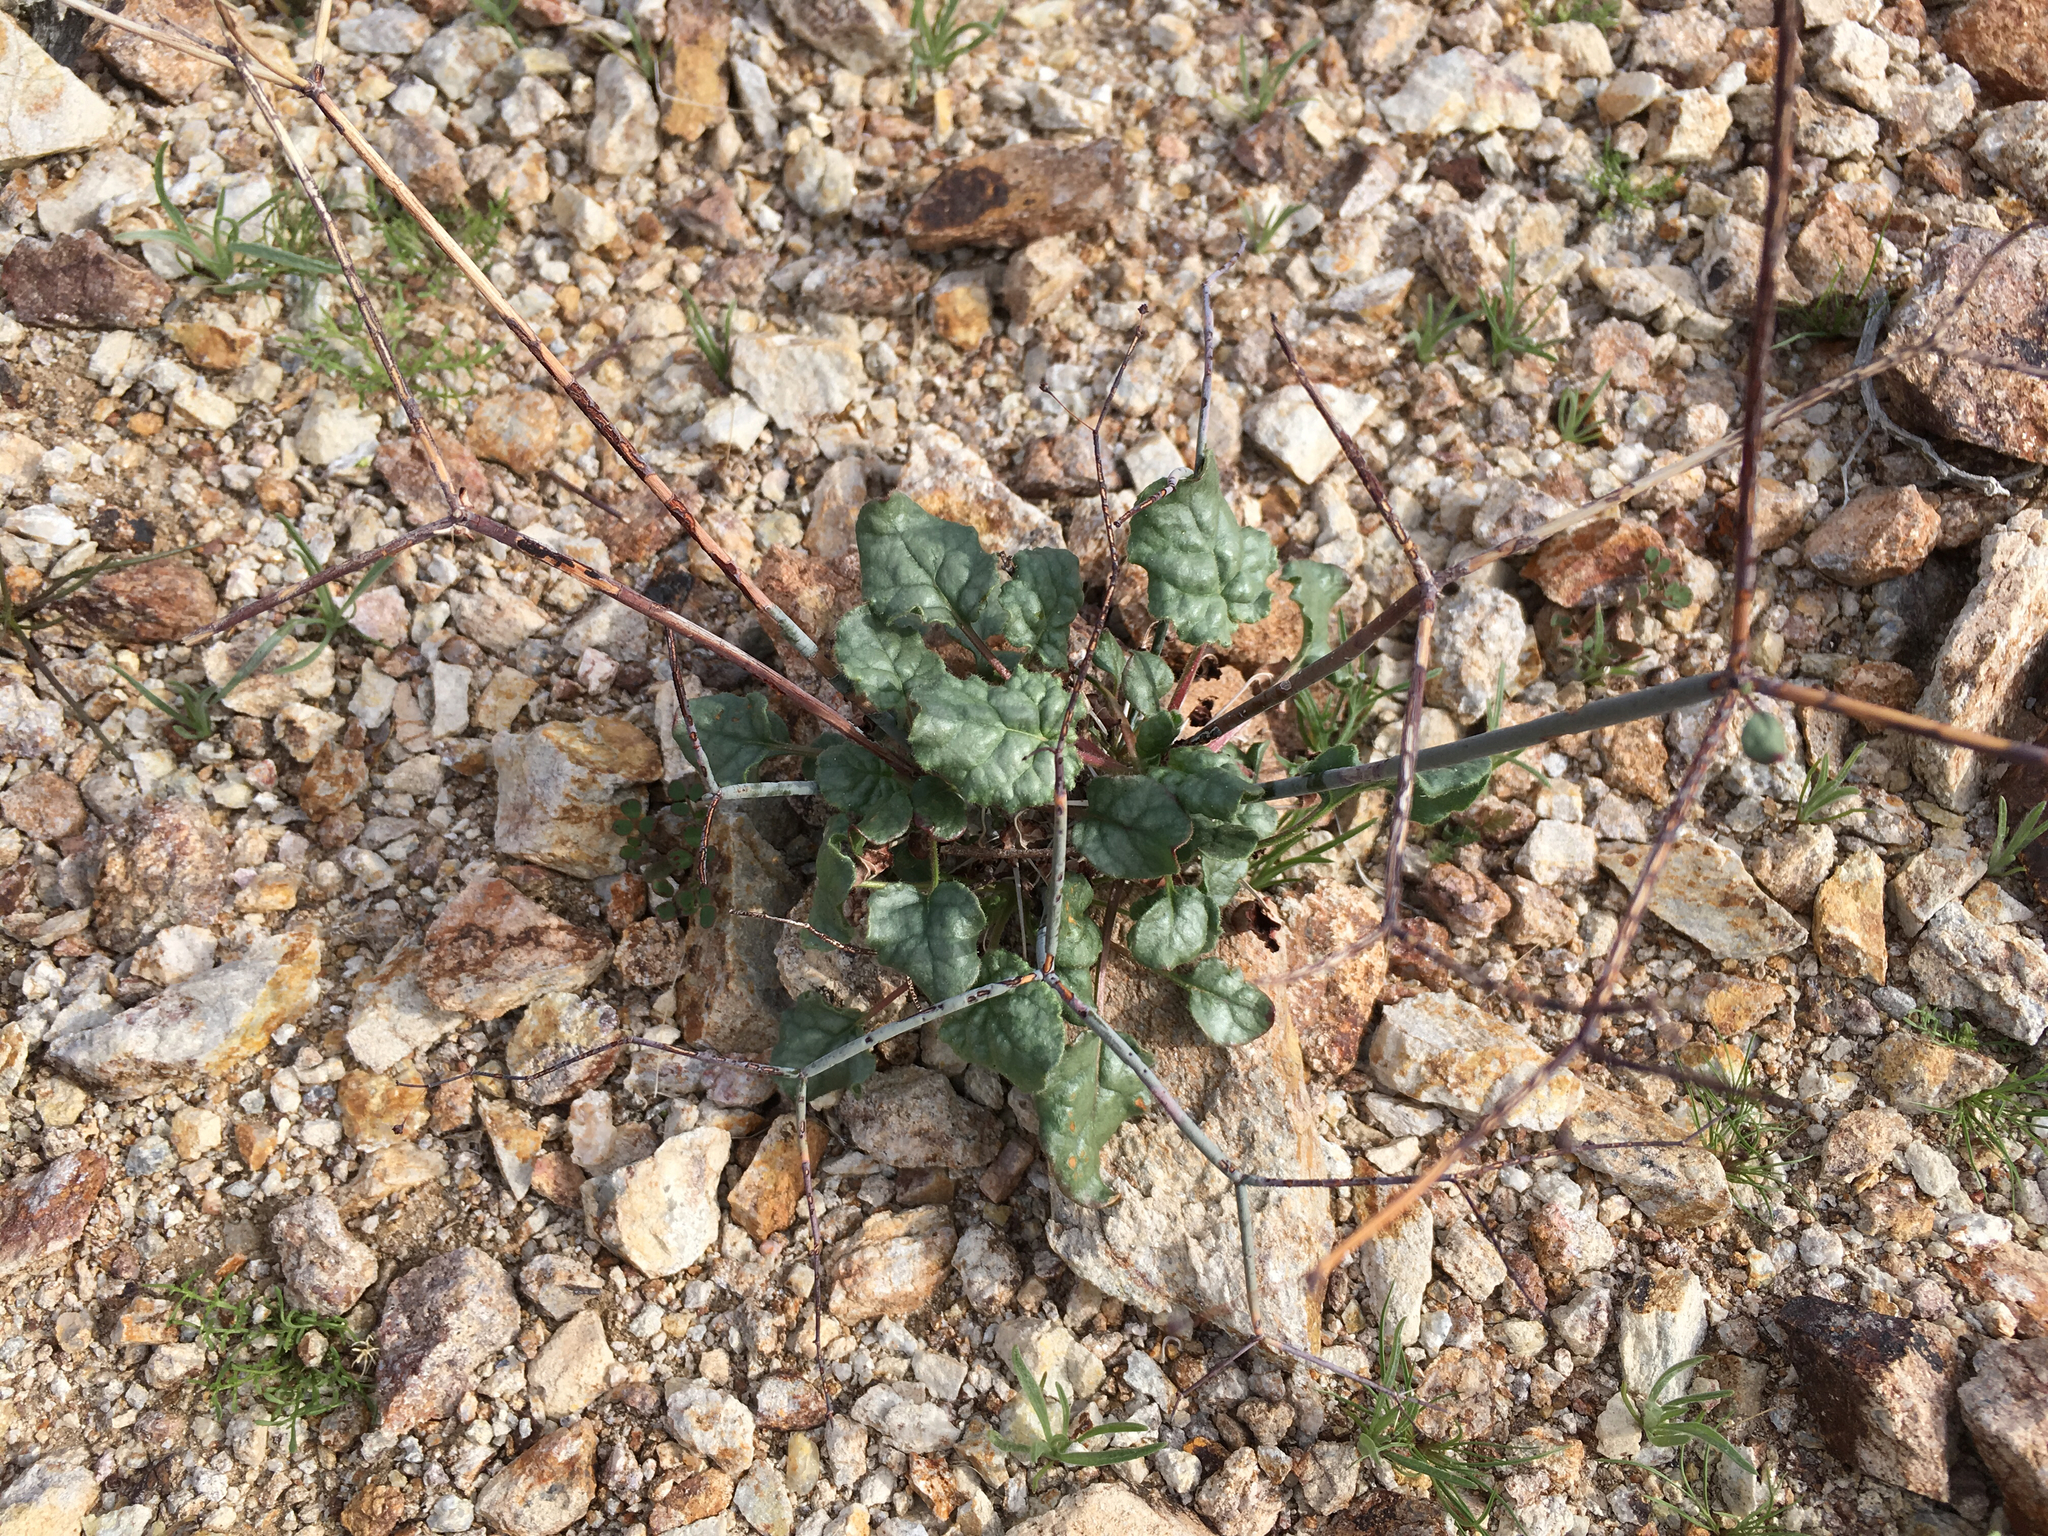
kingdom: Plantae
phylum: Tracheophyta
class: Magnoliopsida
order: Caryophyllales
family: Polygonaceae
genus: Eriogonum
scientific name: Eriogonum inflatum
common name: Desert trumpet
